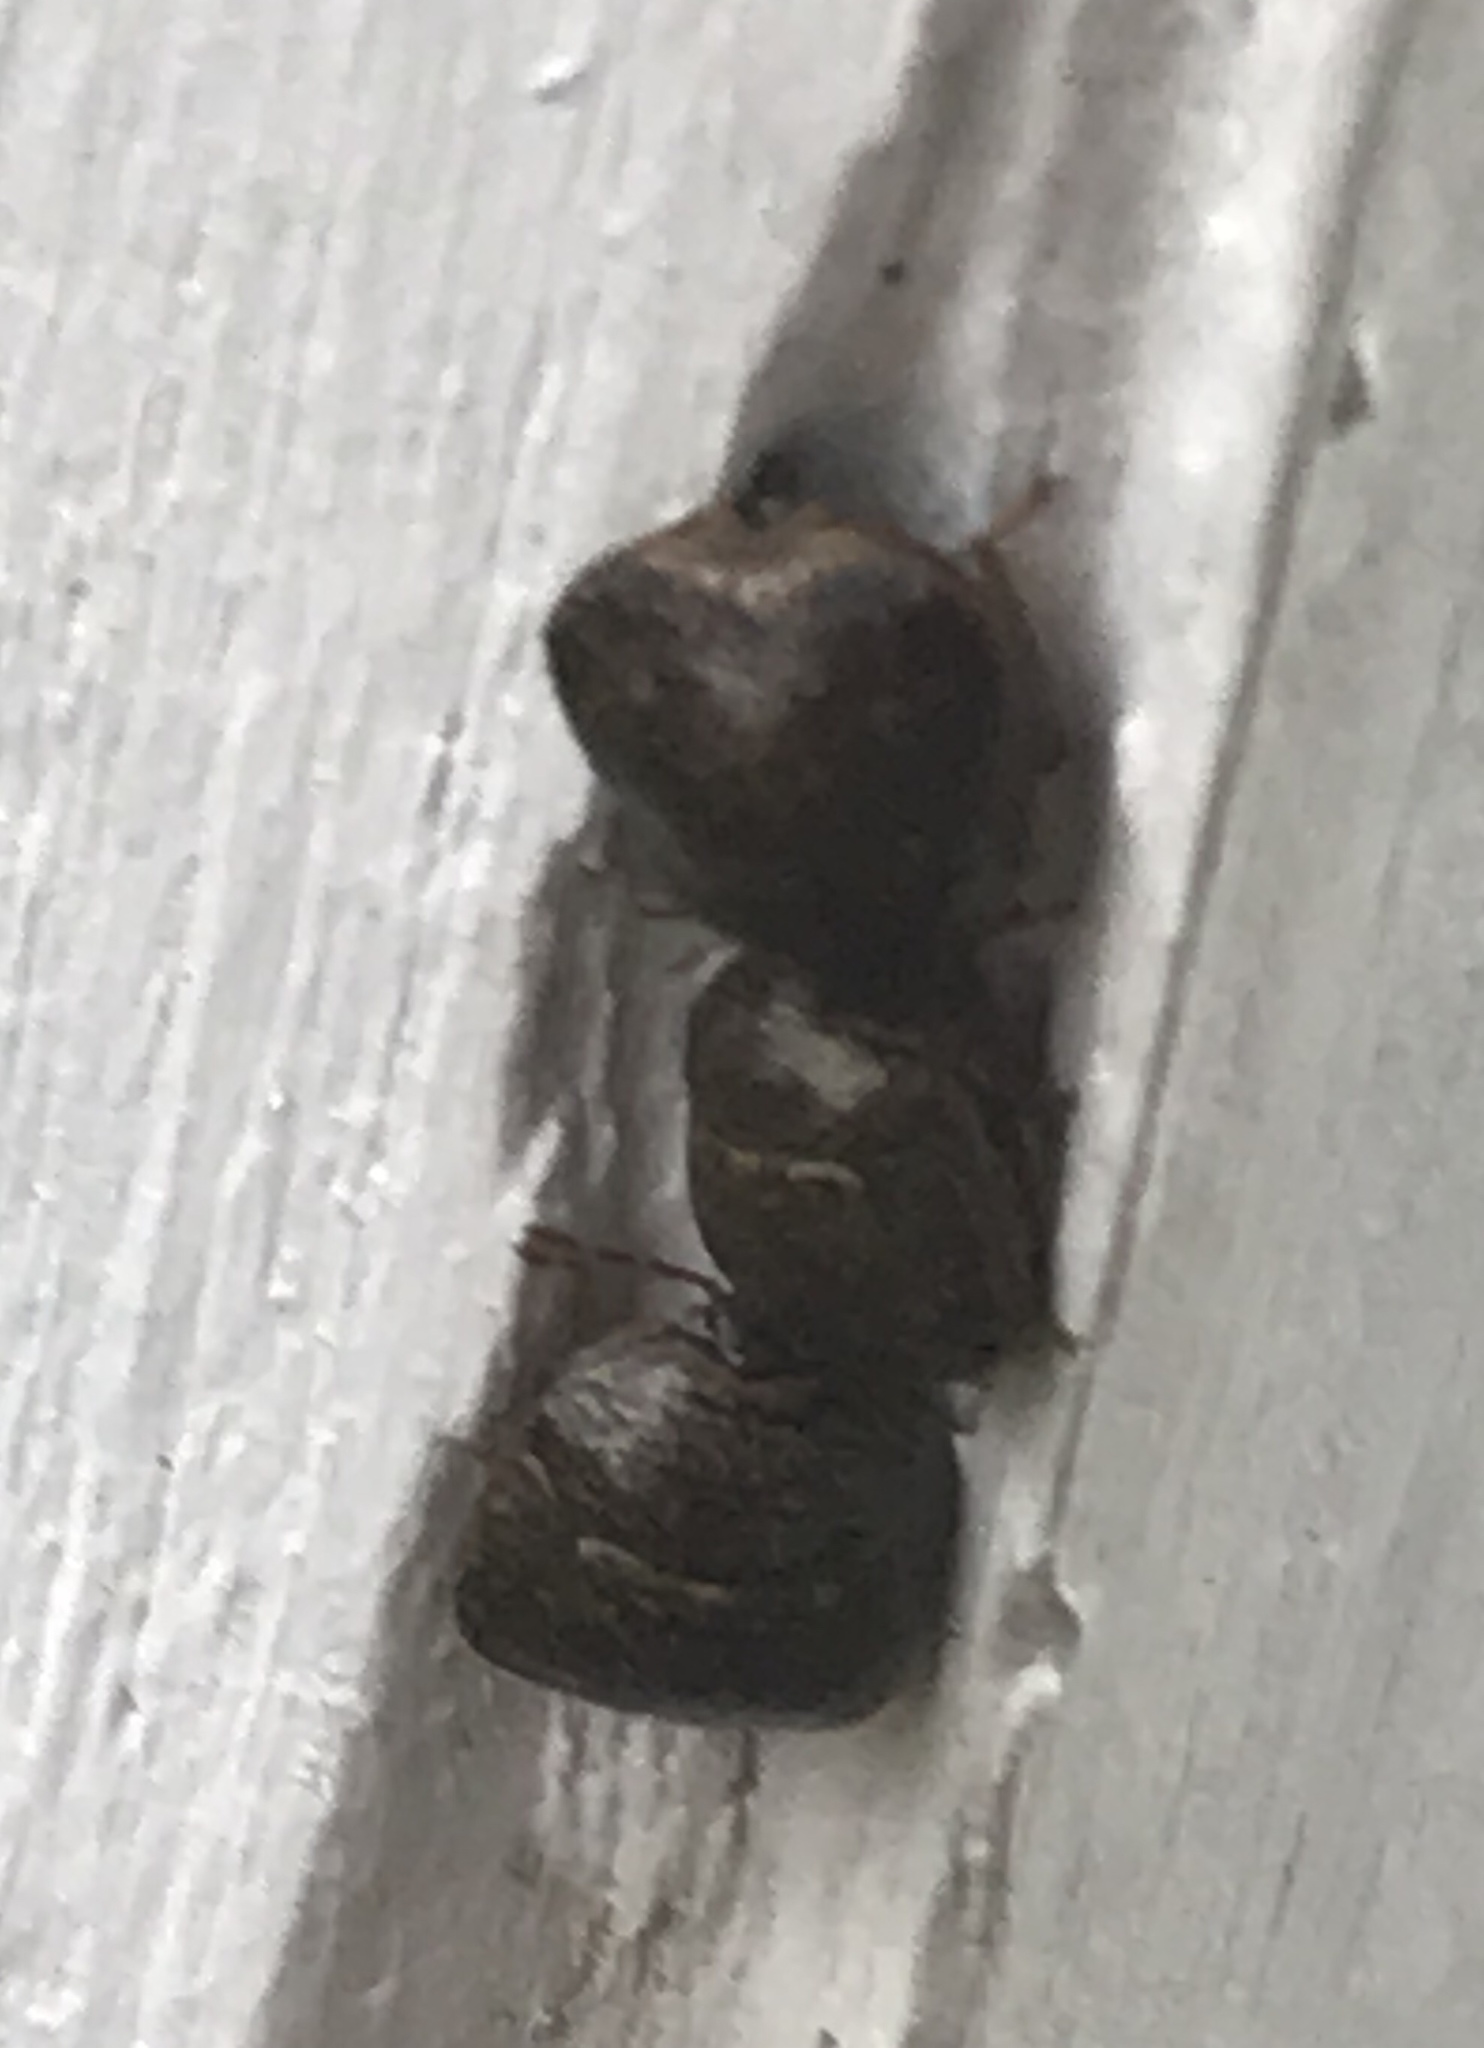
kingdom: Animalia
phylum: Arthropoda
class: Insecta
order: Hemiptera
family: Plataspidae
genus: Megacopta
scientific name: Megacopta cribraria
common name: Bean plataspid
